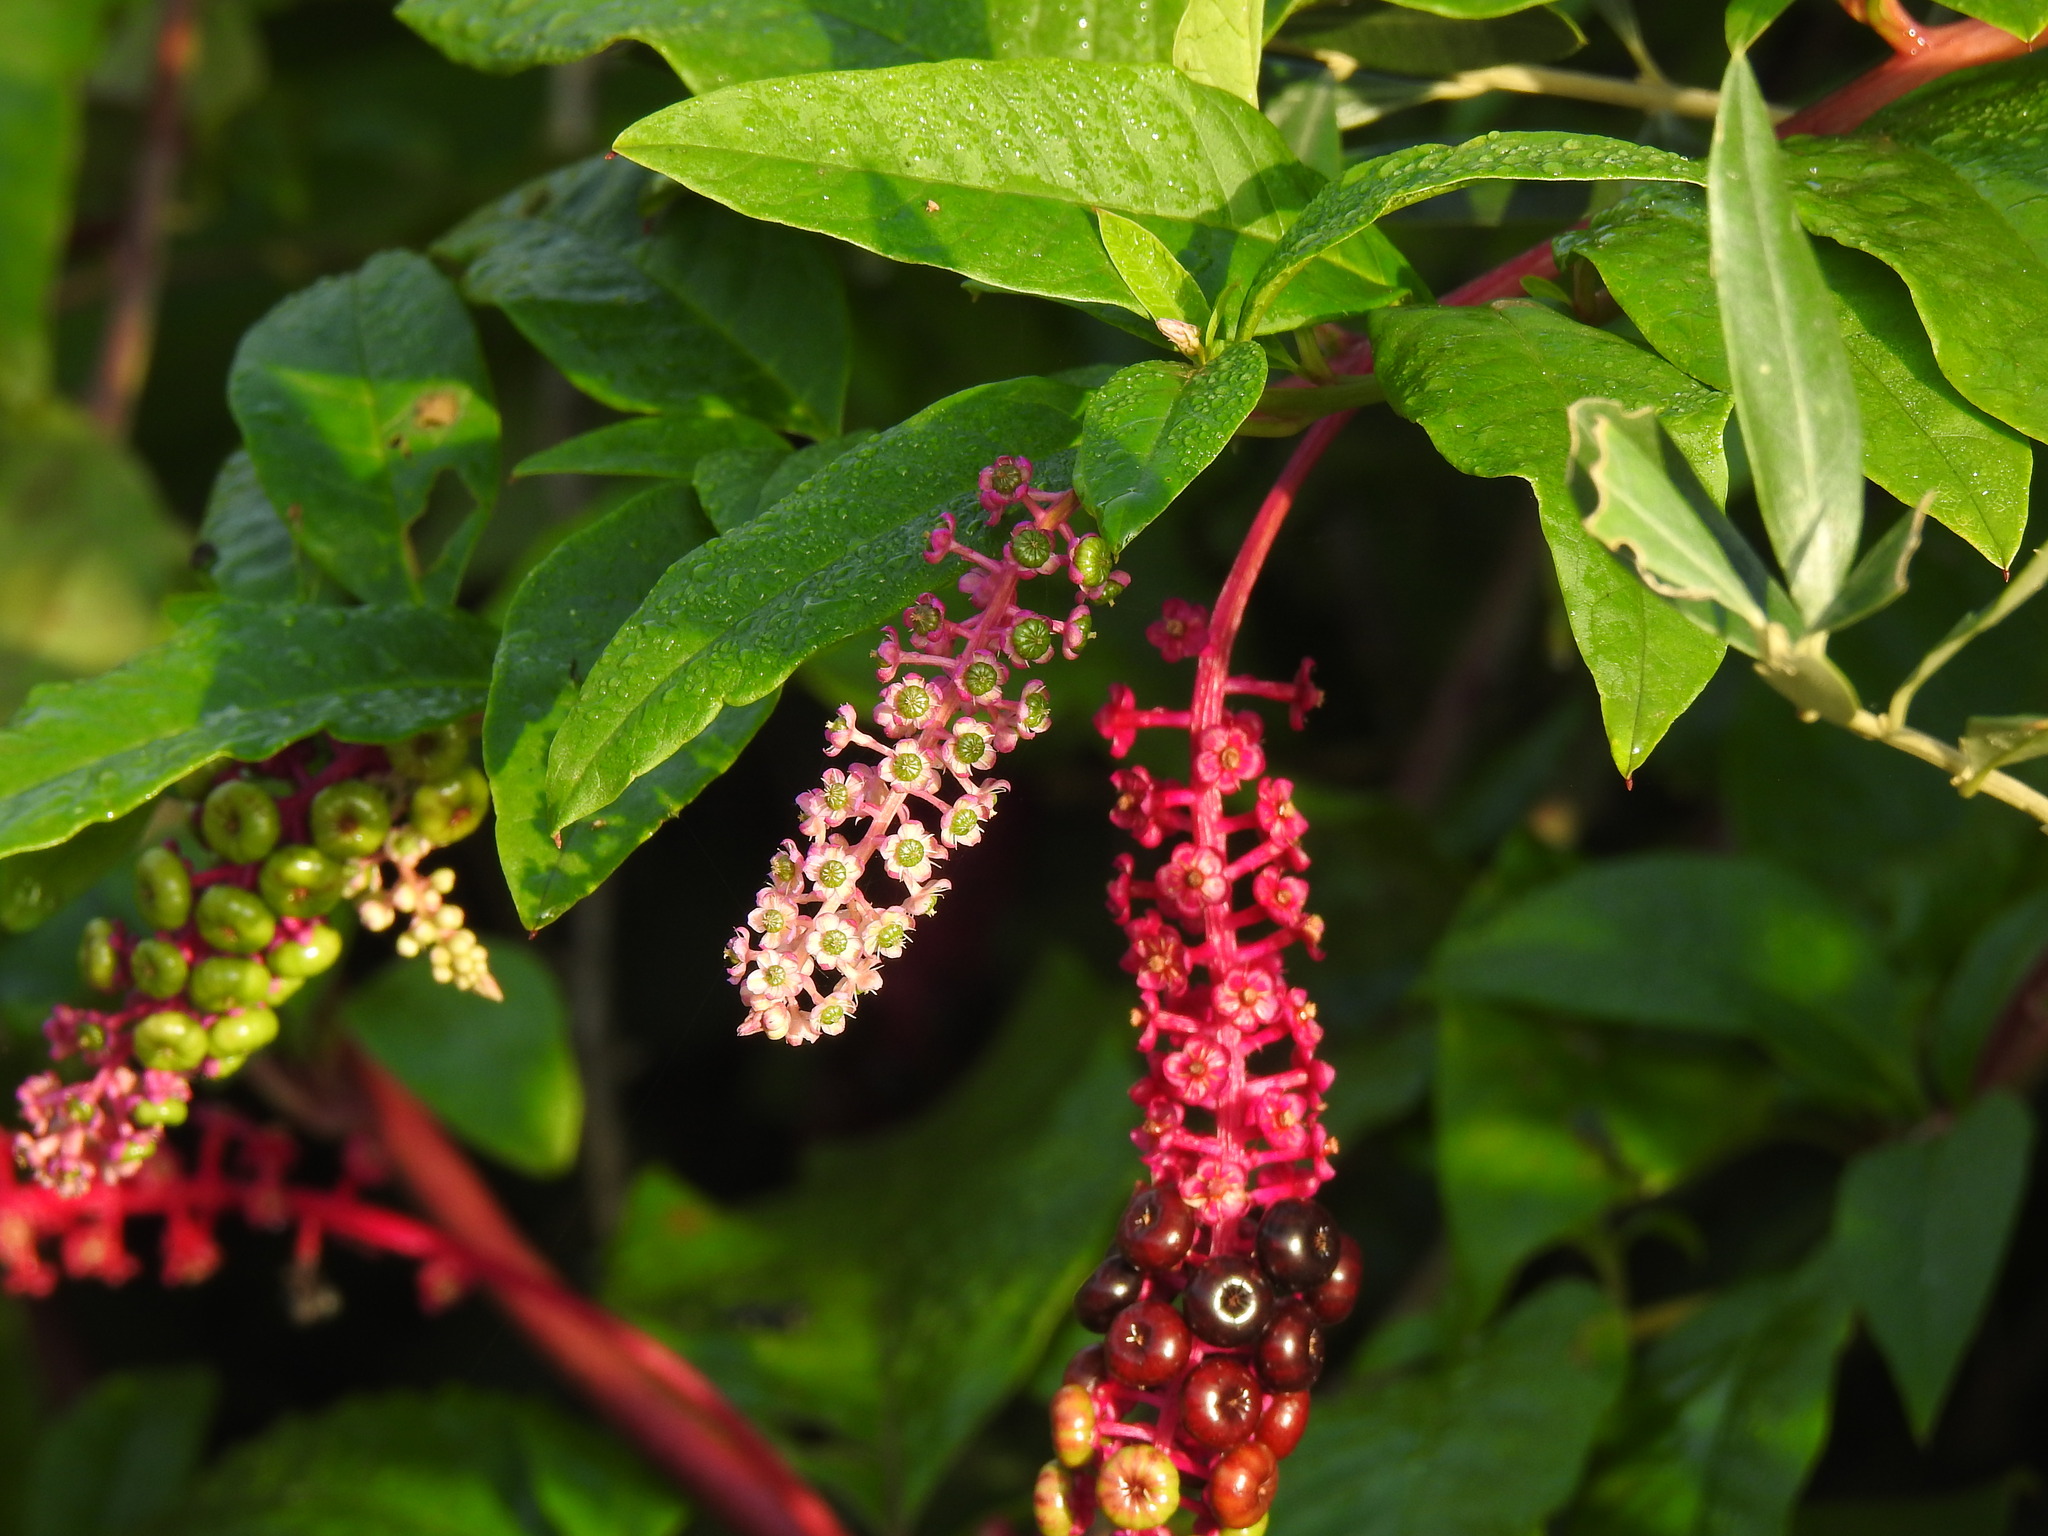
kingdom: Plantae
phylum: Tracheophyta
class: Magnoliopsida
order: Caryophyllales
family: Phytolaccaceae
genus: Phytolacca
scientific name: Phytolacca americana
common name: American pokeweed
